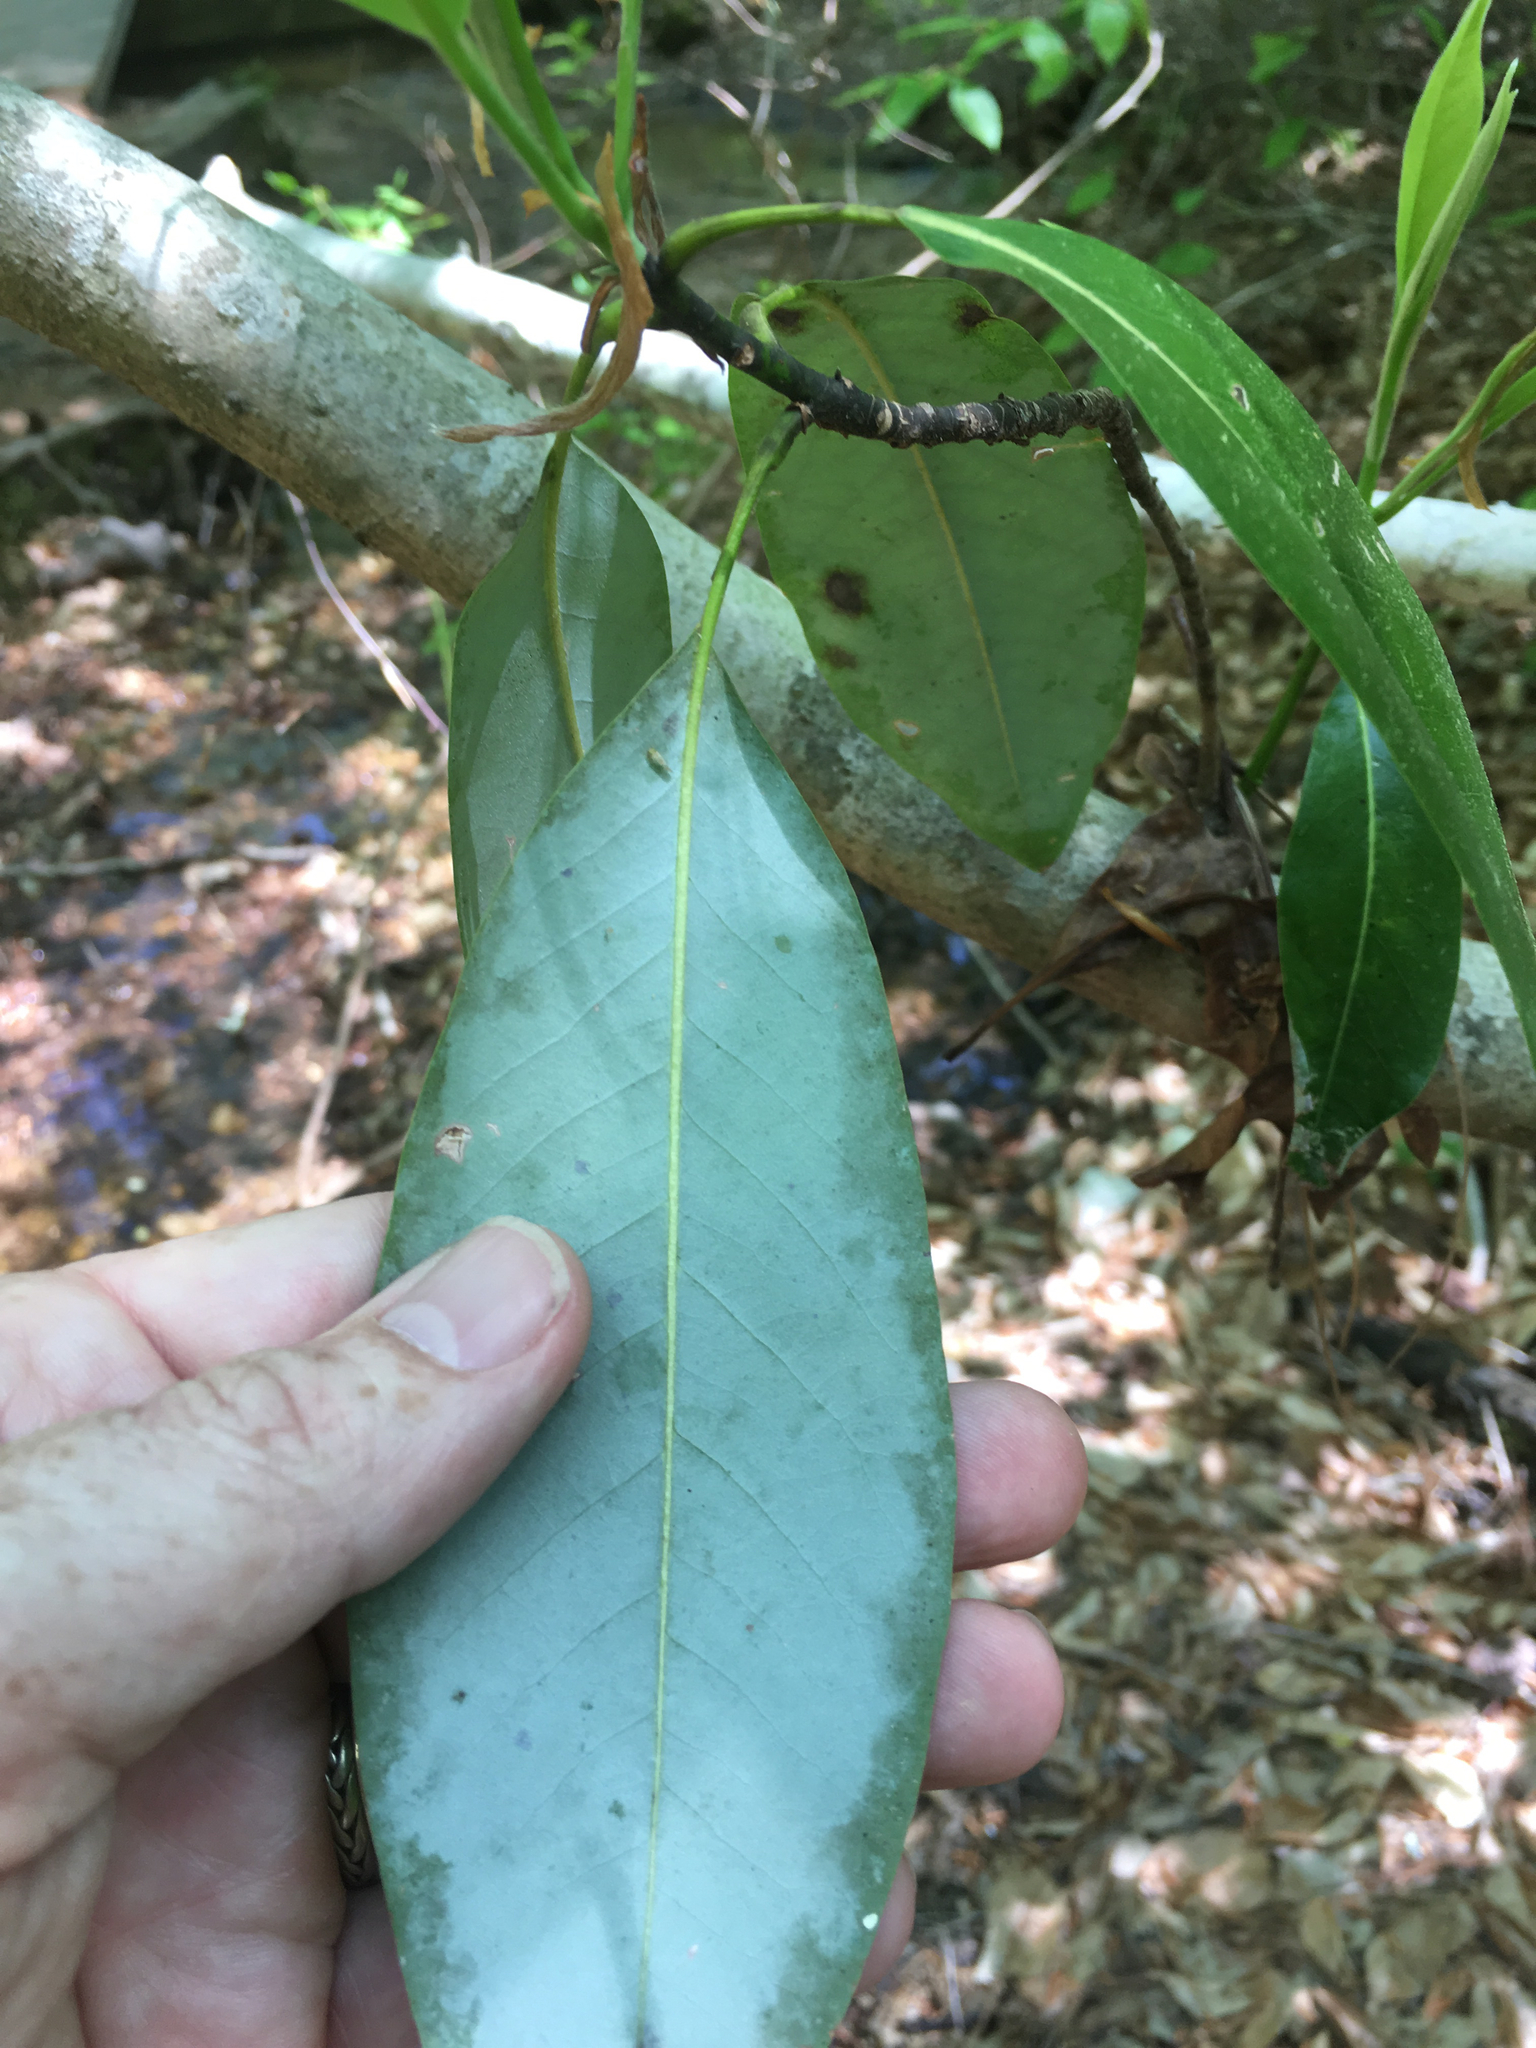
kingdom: Plantae
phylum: Tracheophyta
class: Magnoliopsida
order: Magnoliales
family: Magnoliaceae
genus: Magnolia
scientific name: Magnolia virginiana
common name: Swamp bay
